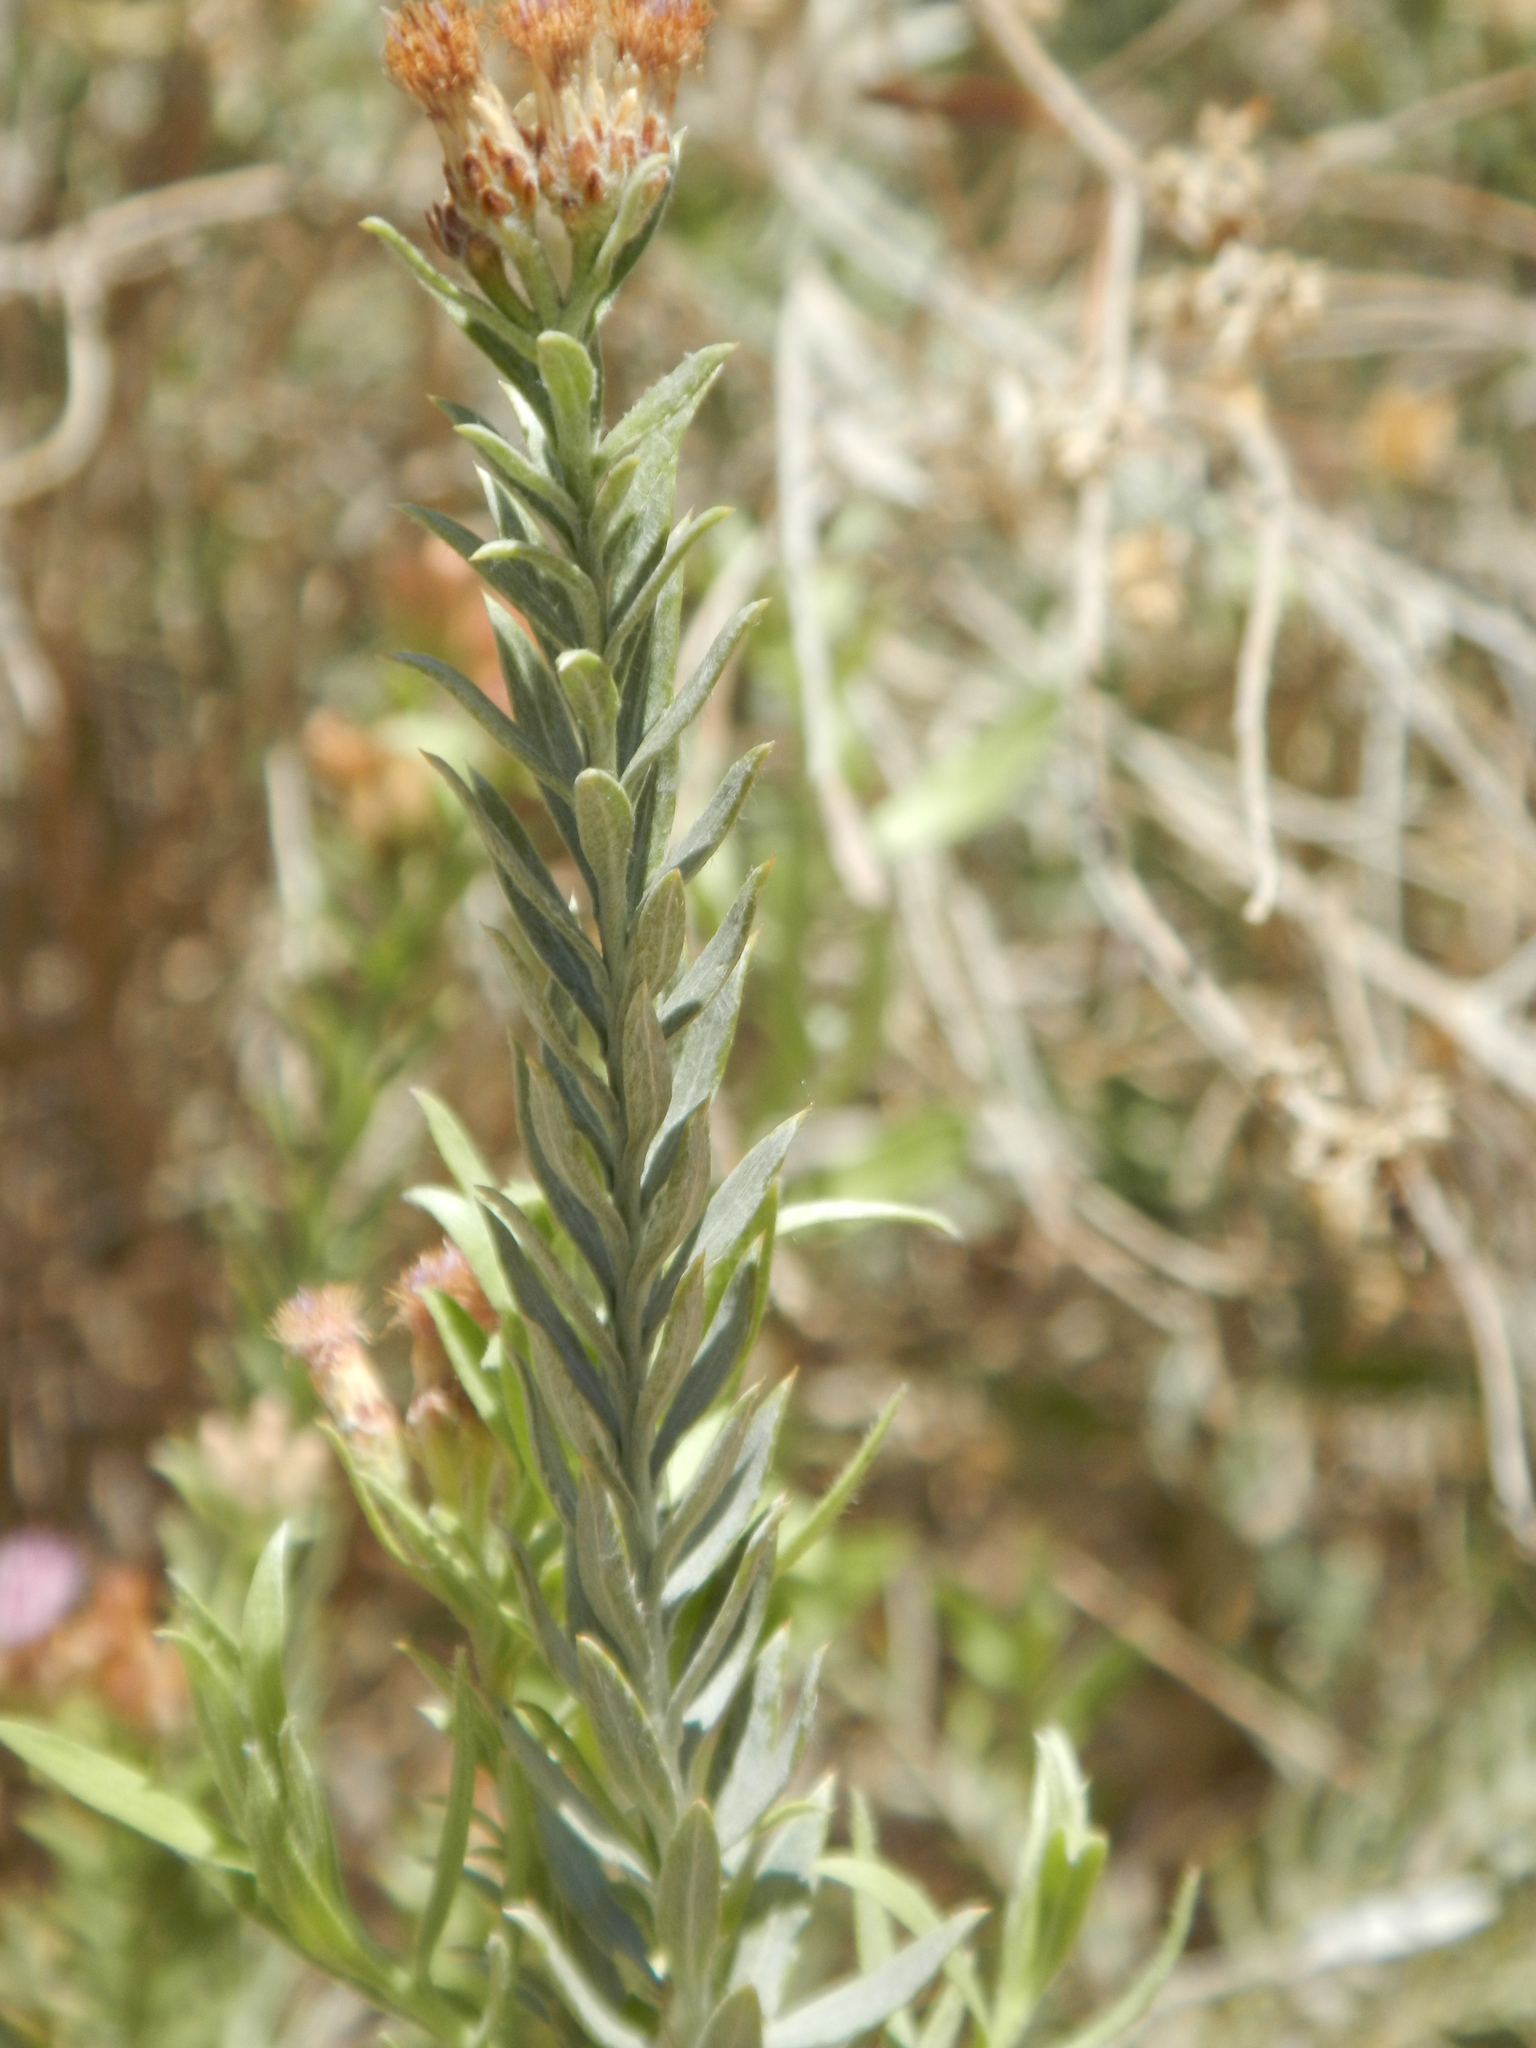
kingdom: Plantae
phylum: Tracheophyta
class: Magnoliopsida
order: Asterales
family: Asteraceae
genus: Pluchea
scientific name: Pluchea sericea
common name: Arrow-weed
